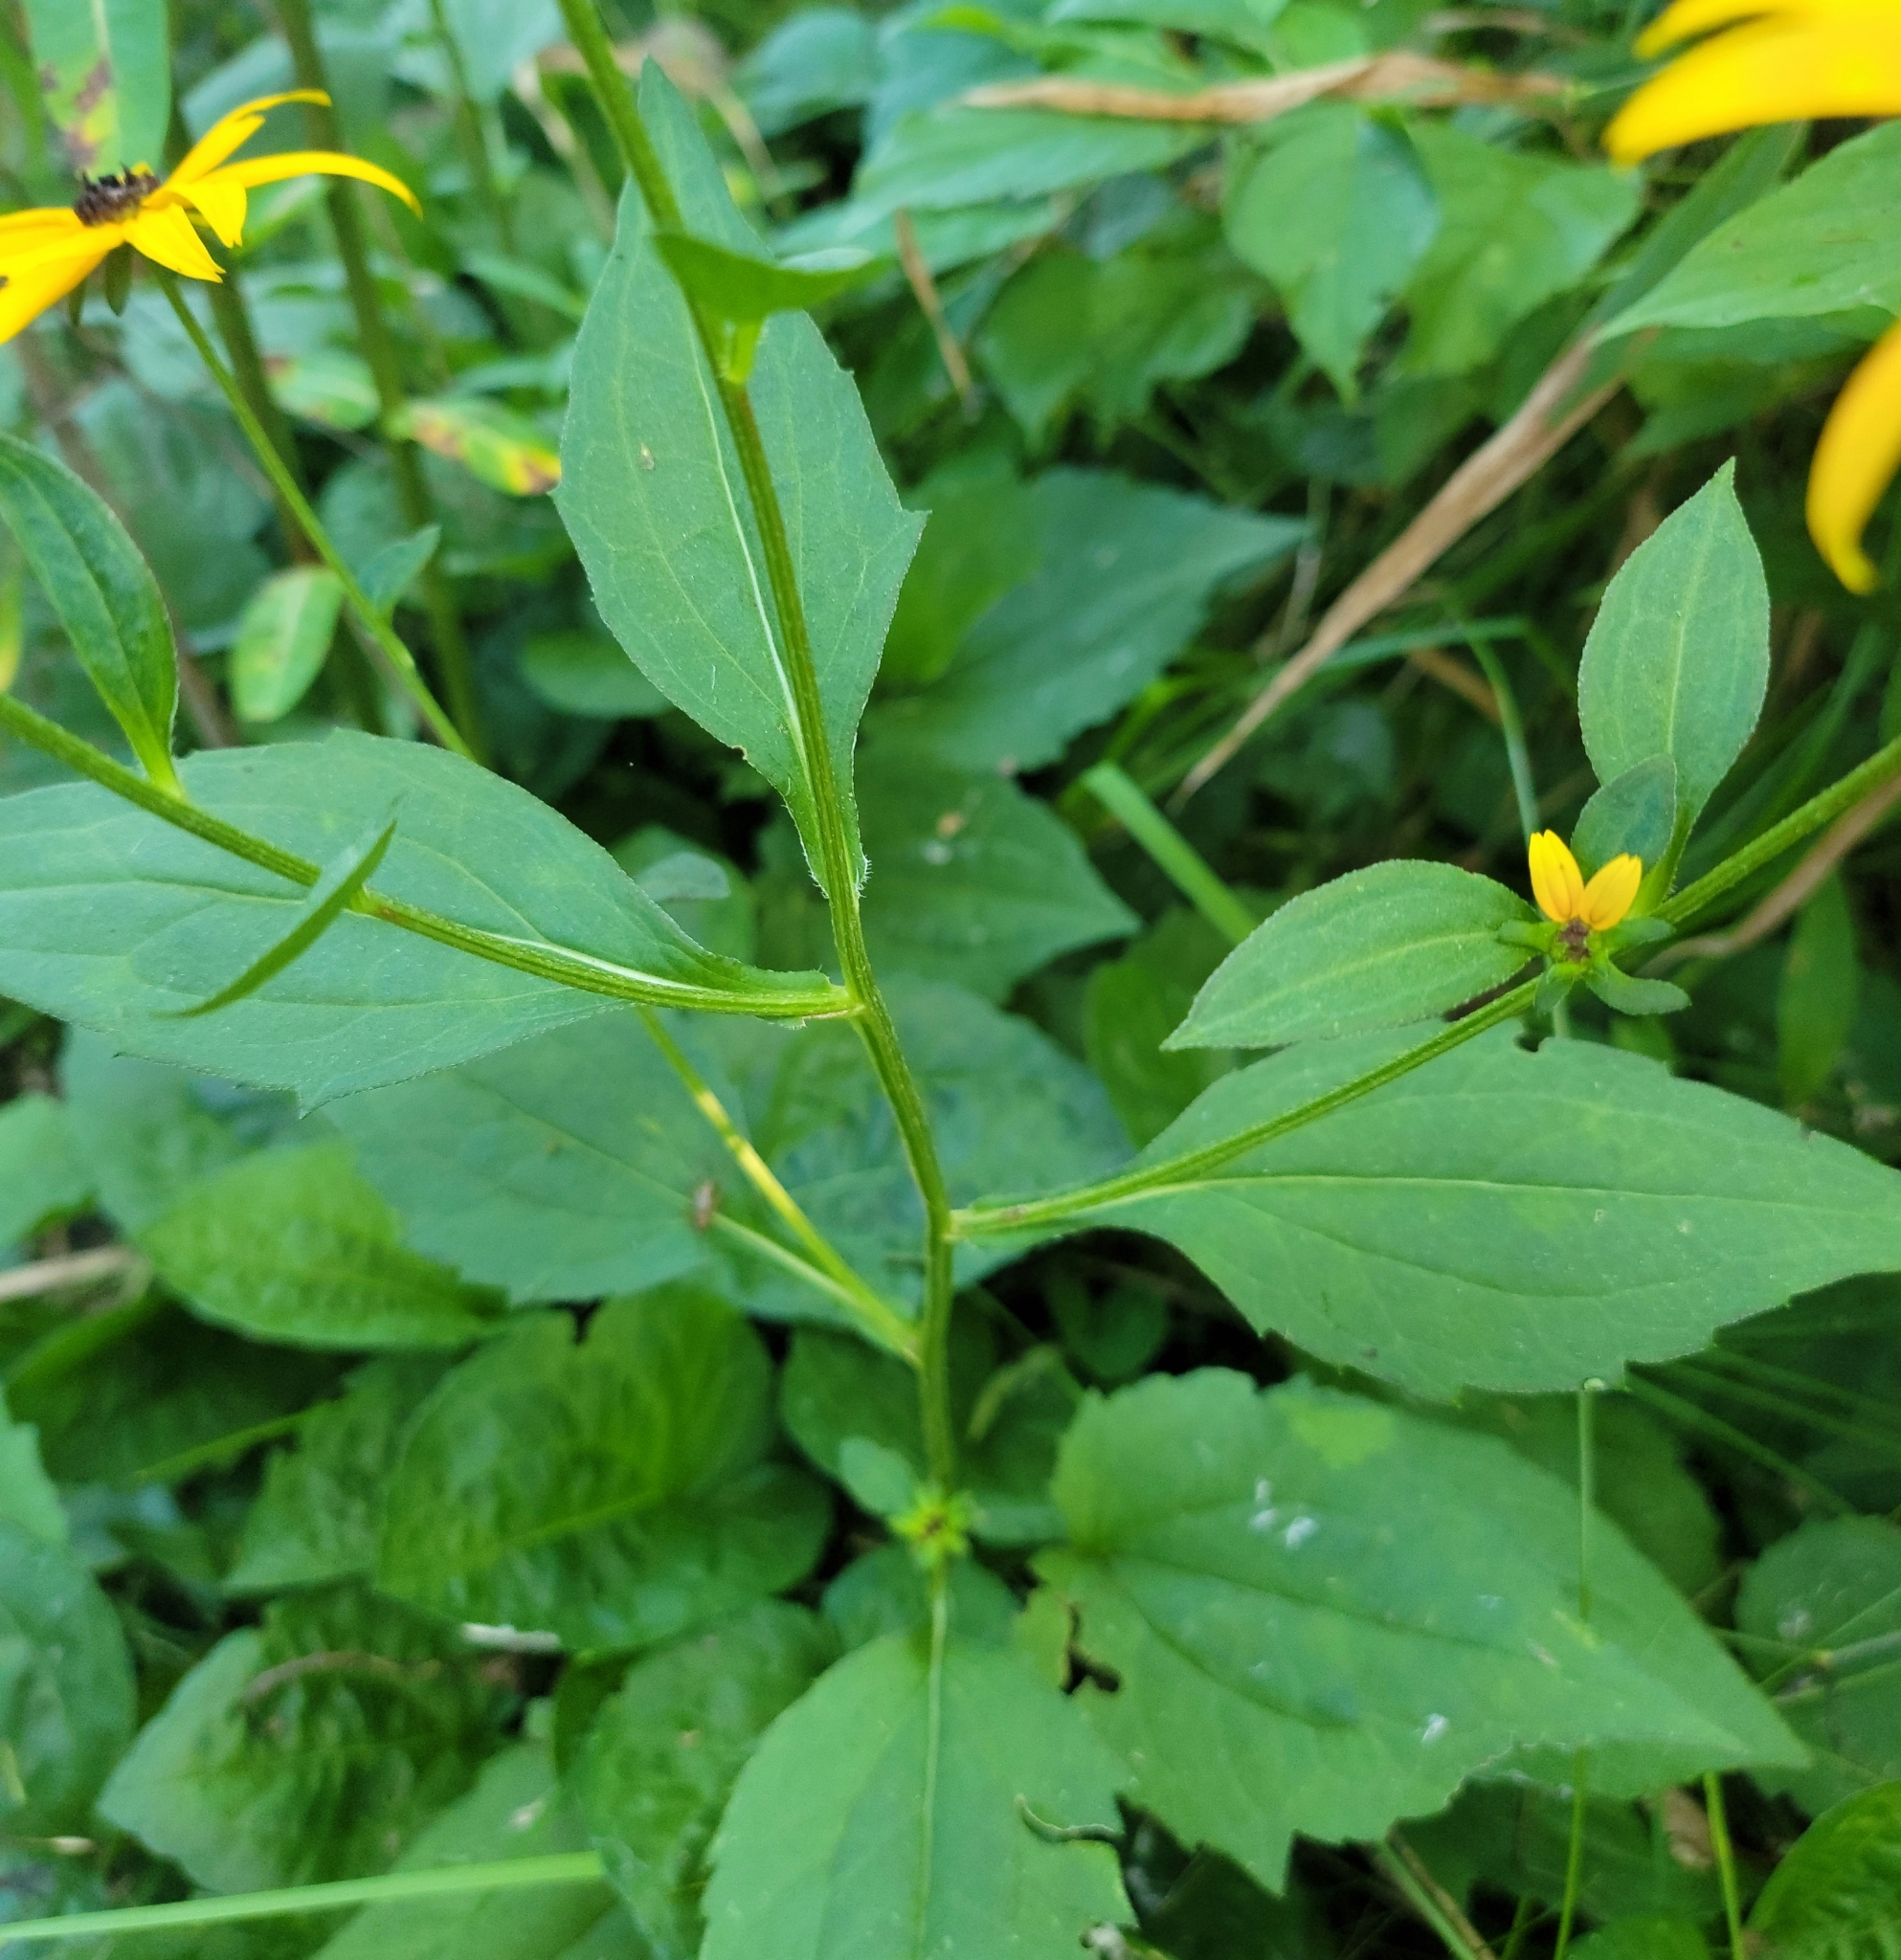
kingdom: Plantae
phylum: Tracheophyta
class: Magnoliopsida
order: Asterales
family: Asteraceae
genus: Rudbeckia
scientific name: Rudbeckia fulgida
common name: Perennial coneflower
